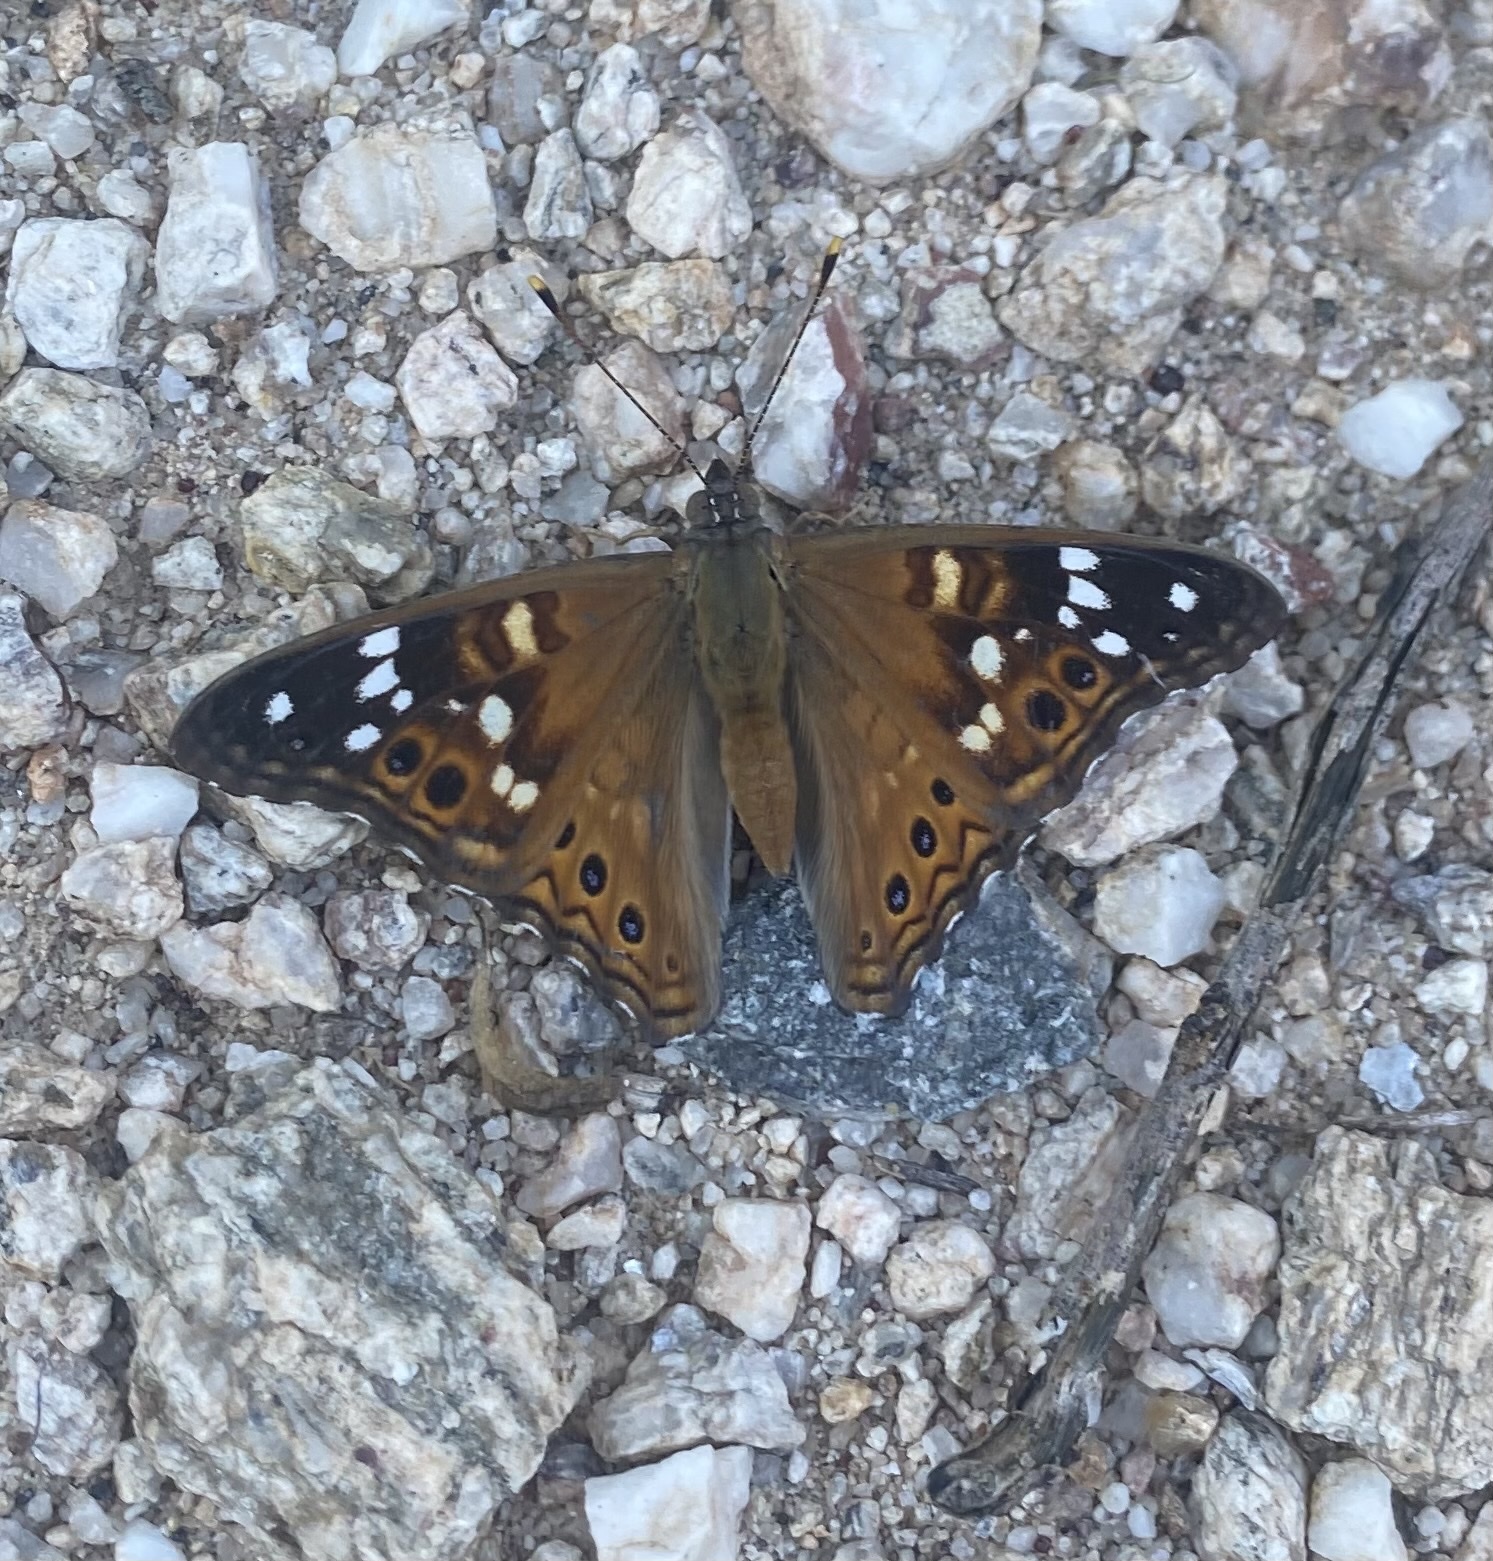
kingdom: Animalia
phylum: Arthropoda
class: Insecta
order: Lepidoptera
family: Nymphalidae
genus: Asterocampa
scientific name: Asterocampa leilia
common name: Empress leilia
